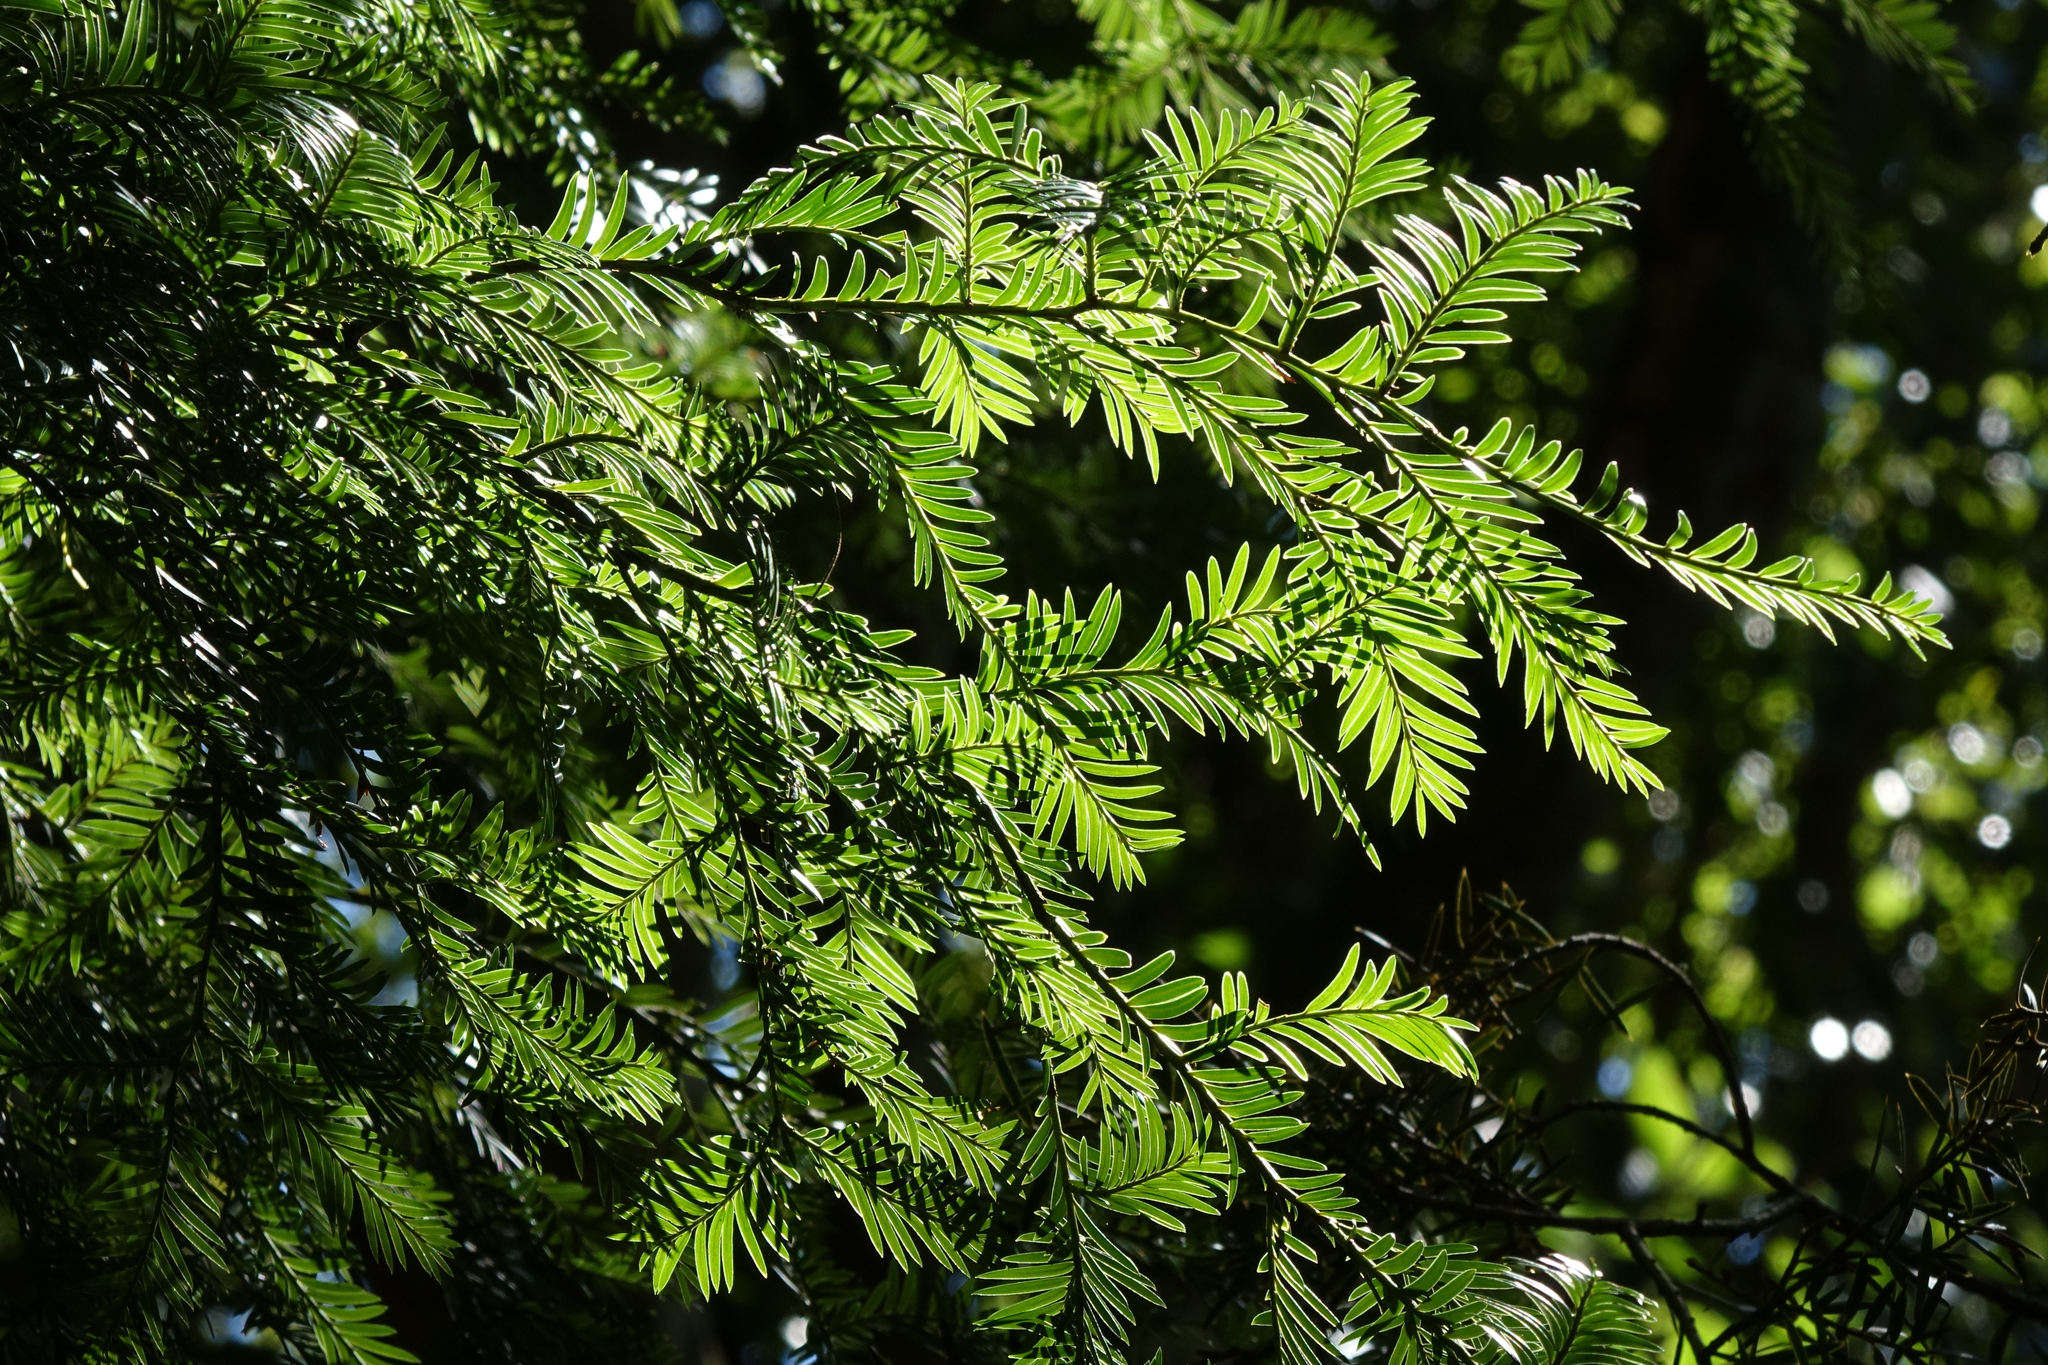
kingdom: Plantae
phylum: Tracheophyta
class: Pinopsida
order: Pinales
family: Podocarpaceae
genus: Prumnopitys
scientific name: Prumnopitys ferruginea
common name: Brown pine
